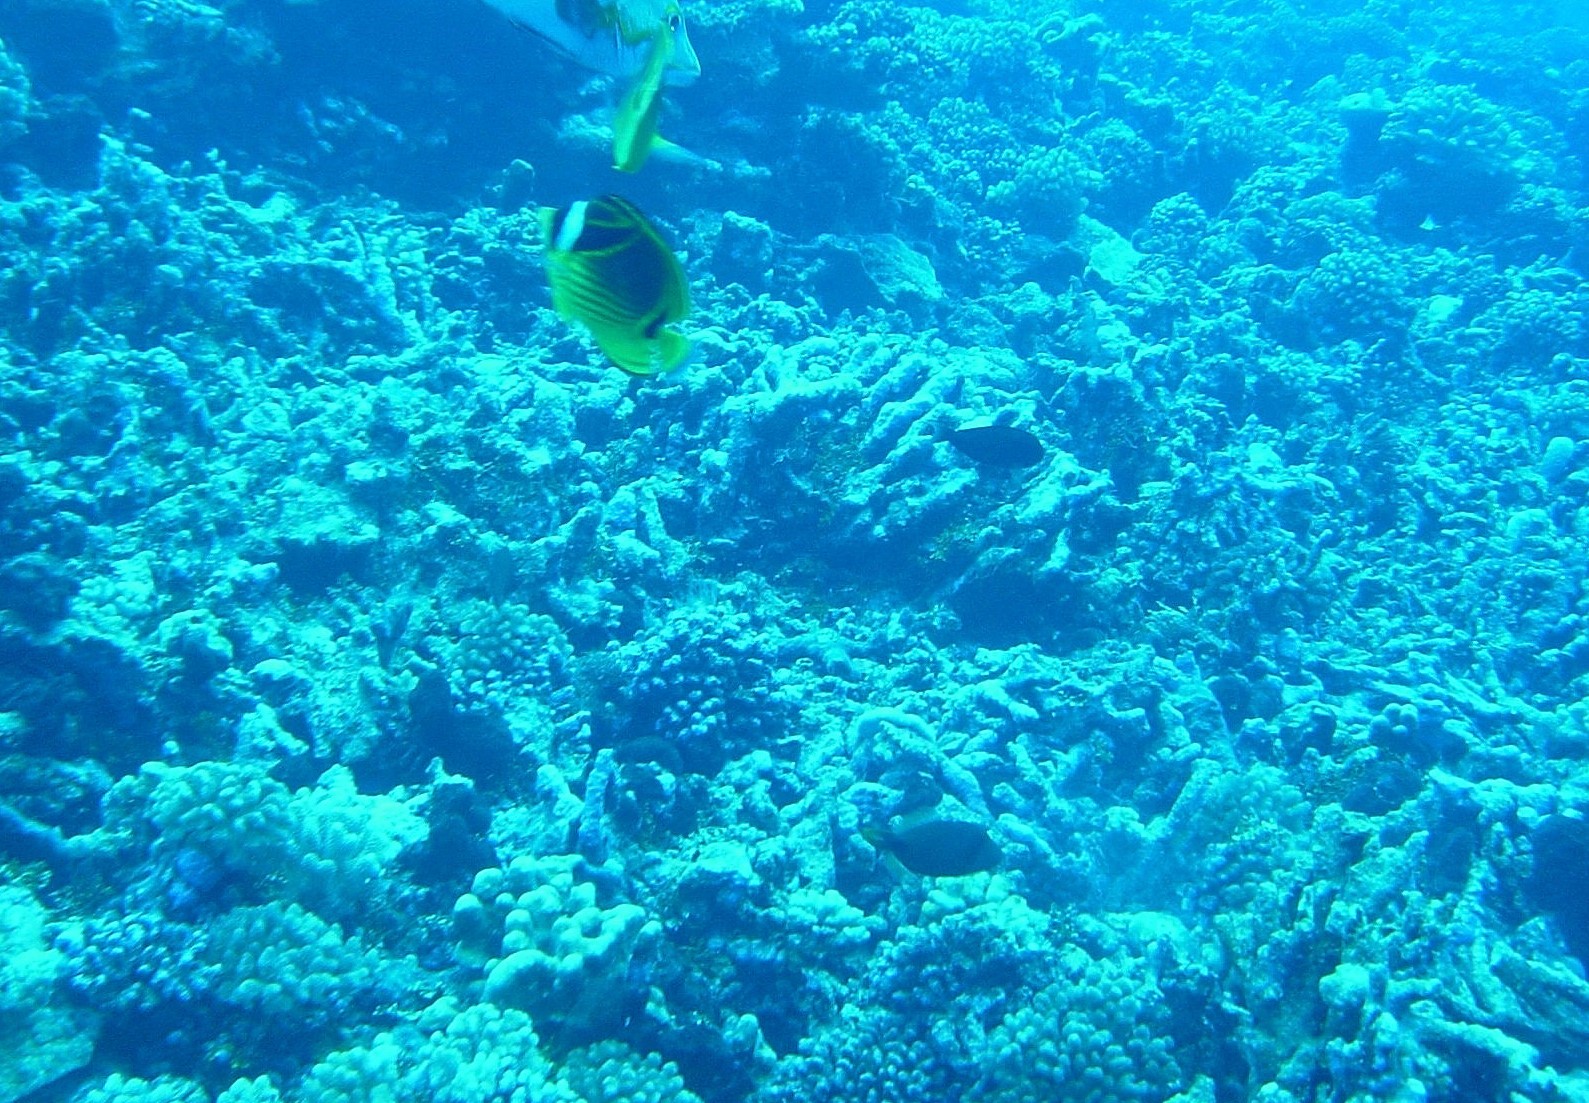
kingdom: Animalia
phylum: Chordata
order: Perciformes
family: Chaetodontidae
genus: Chaetodon
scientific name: Chaetodon lunula
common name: Raccoon butterflyfish
